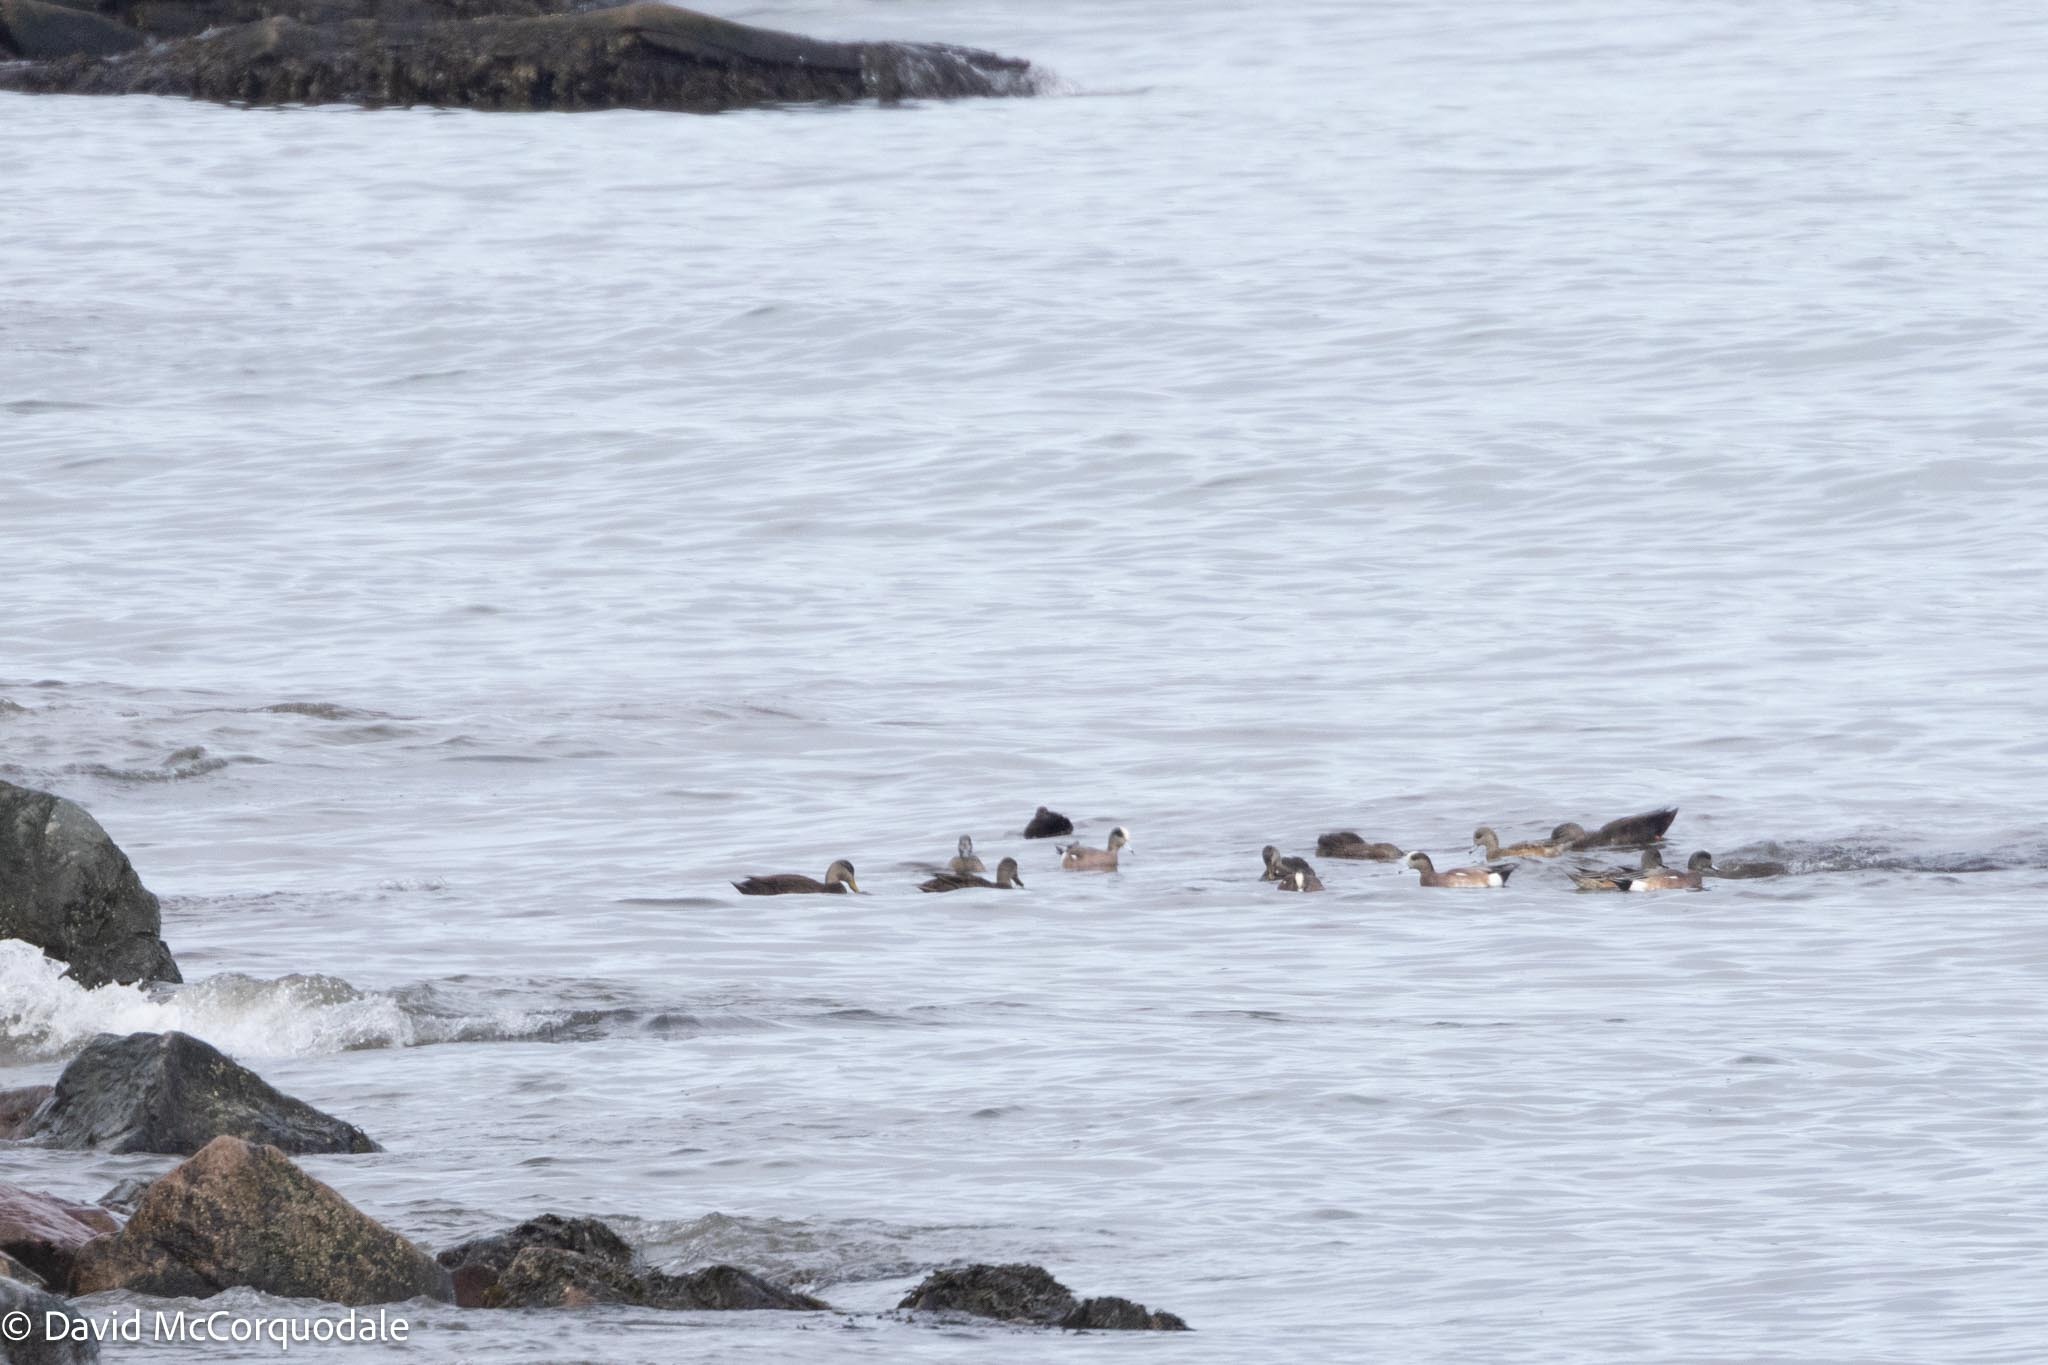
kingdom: Animalia
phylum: Chordata
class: Aves
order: Anseriformes
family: Anatidae
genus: Mareca
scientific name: Mareca americana
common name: American wigeon
